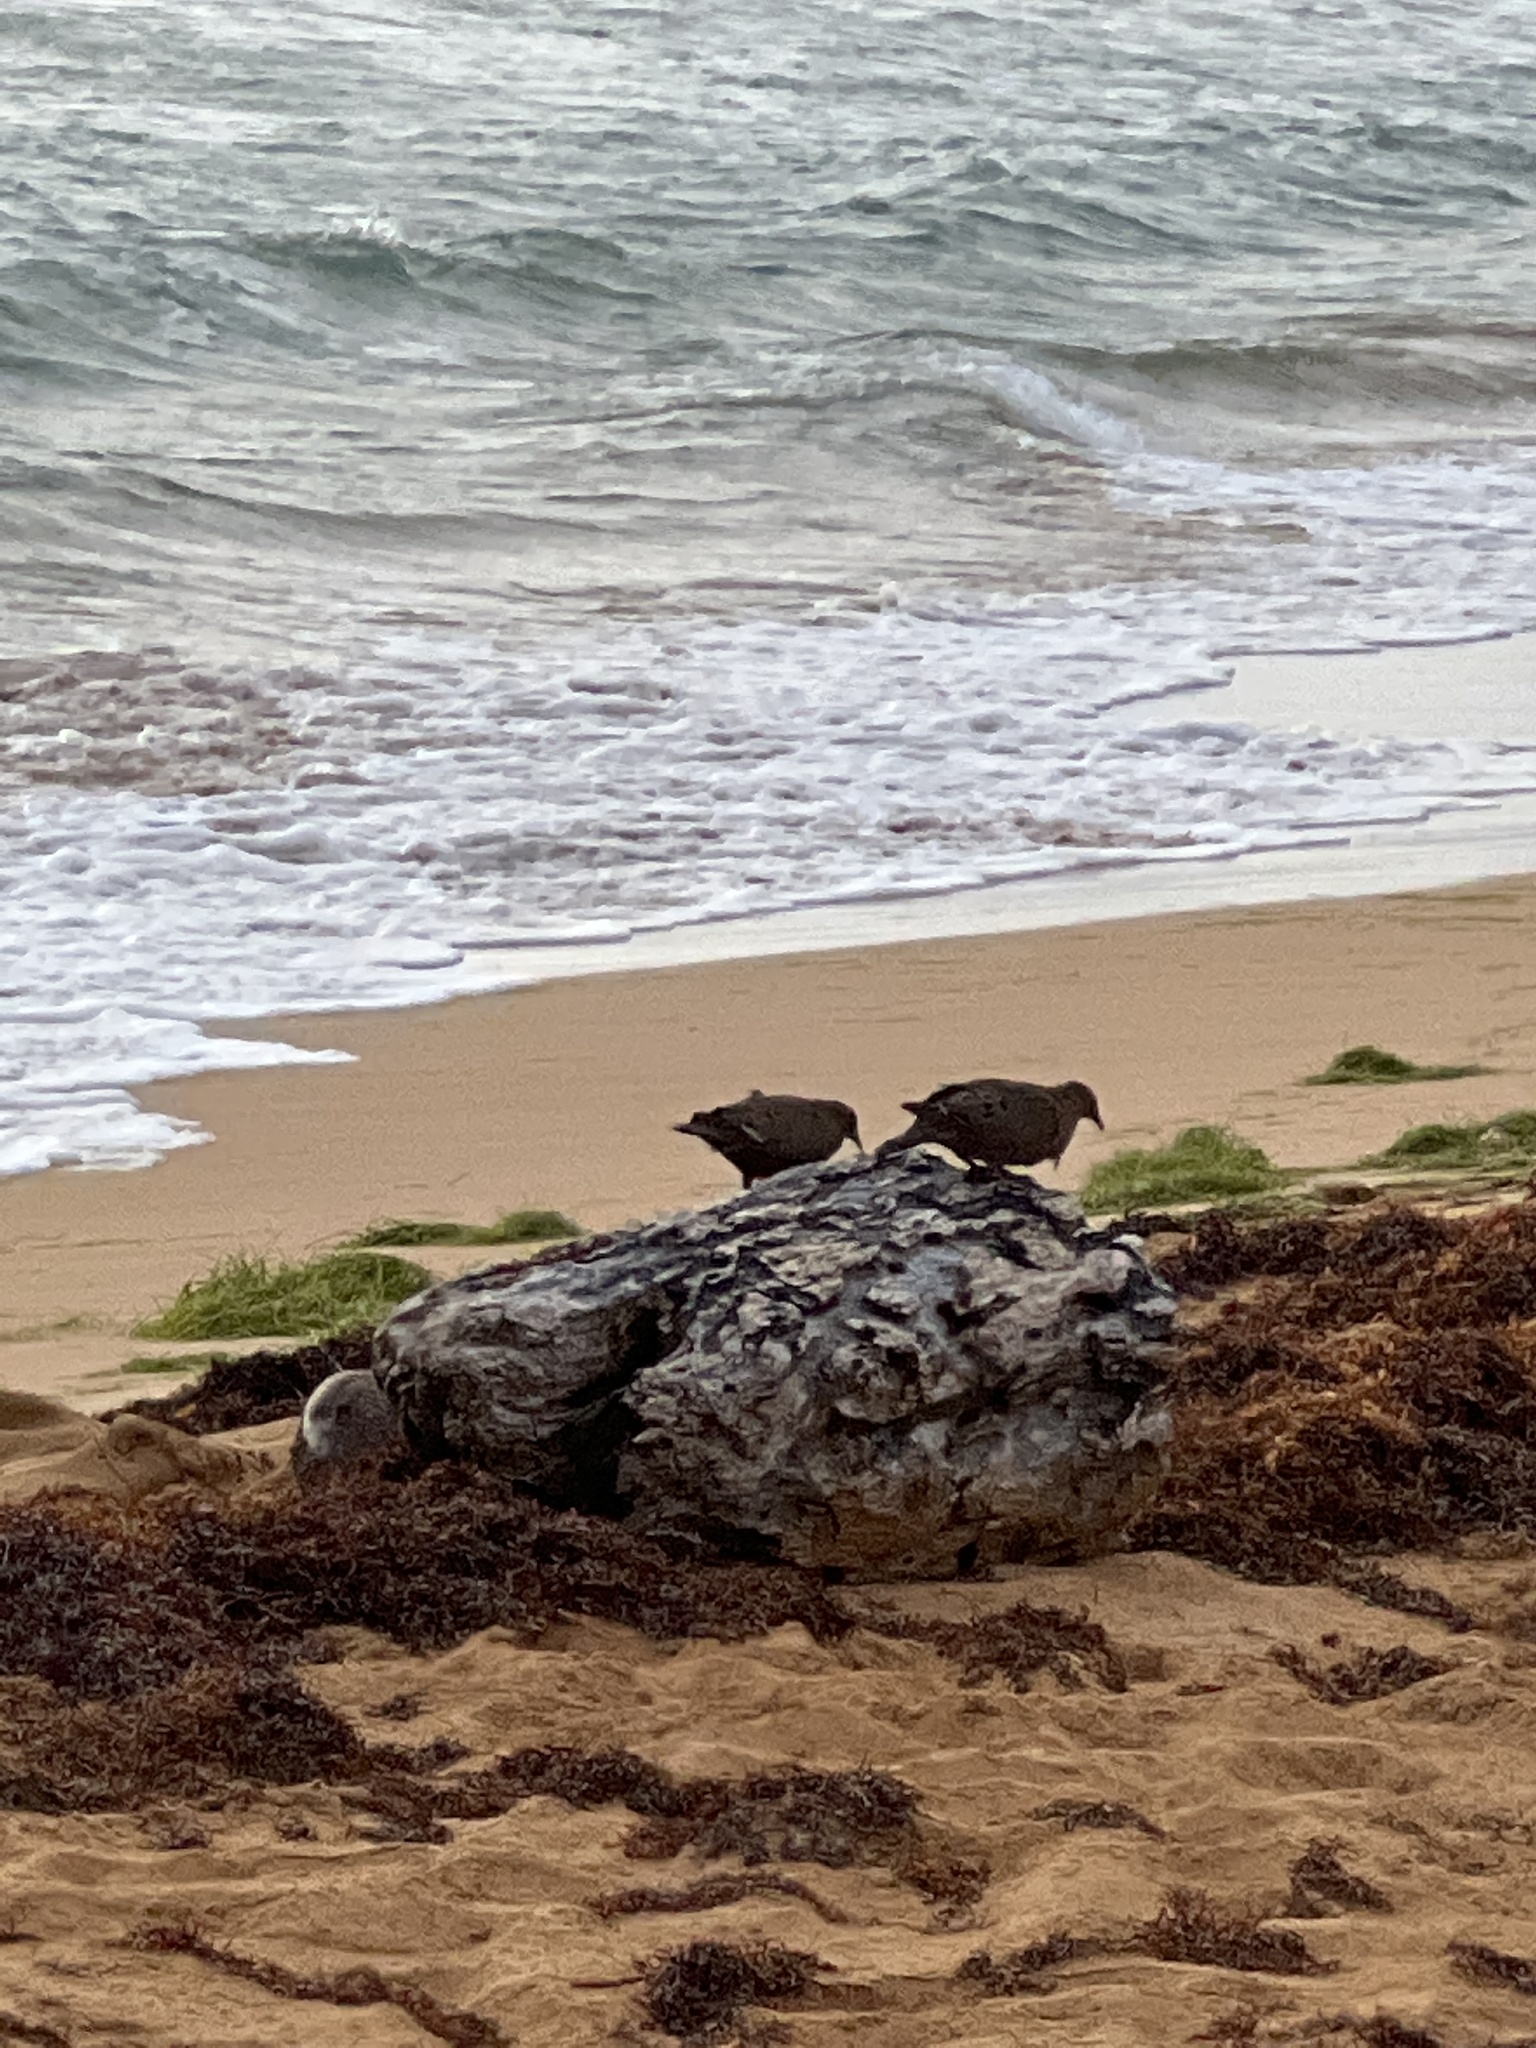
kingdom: Animalia
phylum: Chordata
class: Aves
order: Columbiformes
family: Columbidae
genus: Zenaida
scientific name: Zenaida aurita
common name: Zenaida dove
